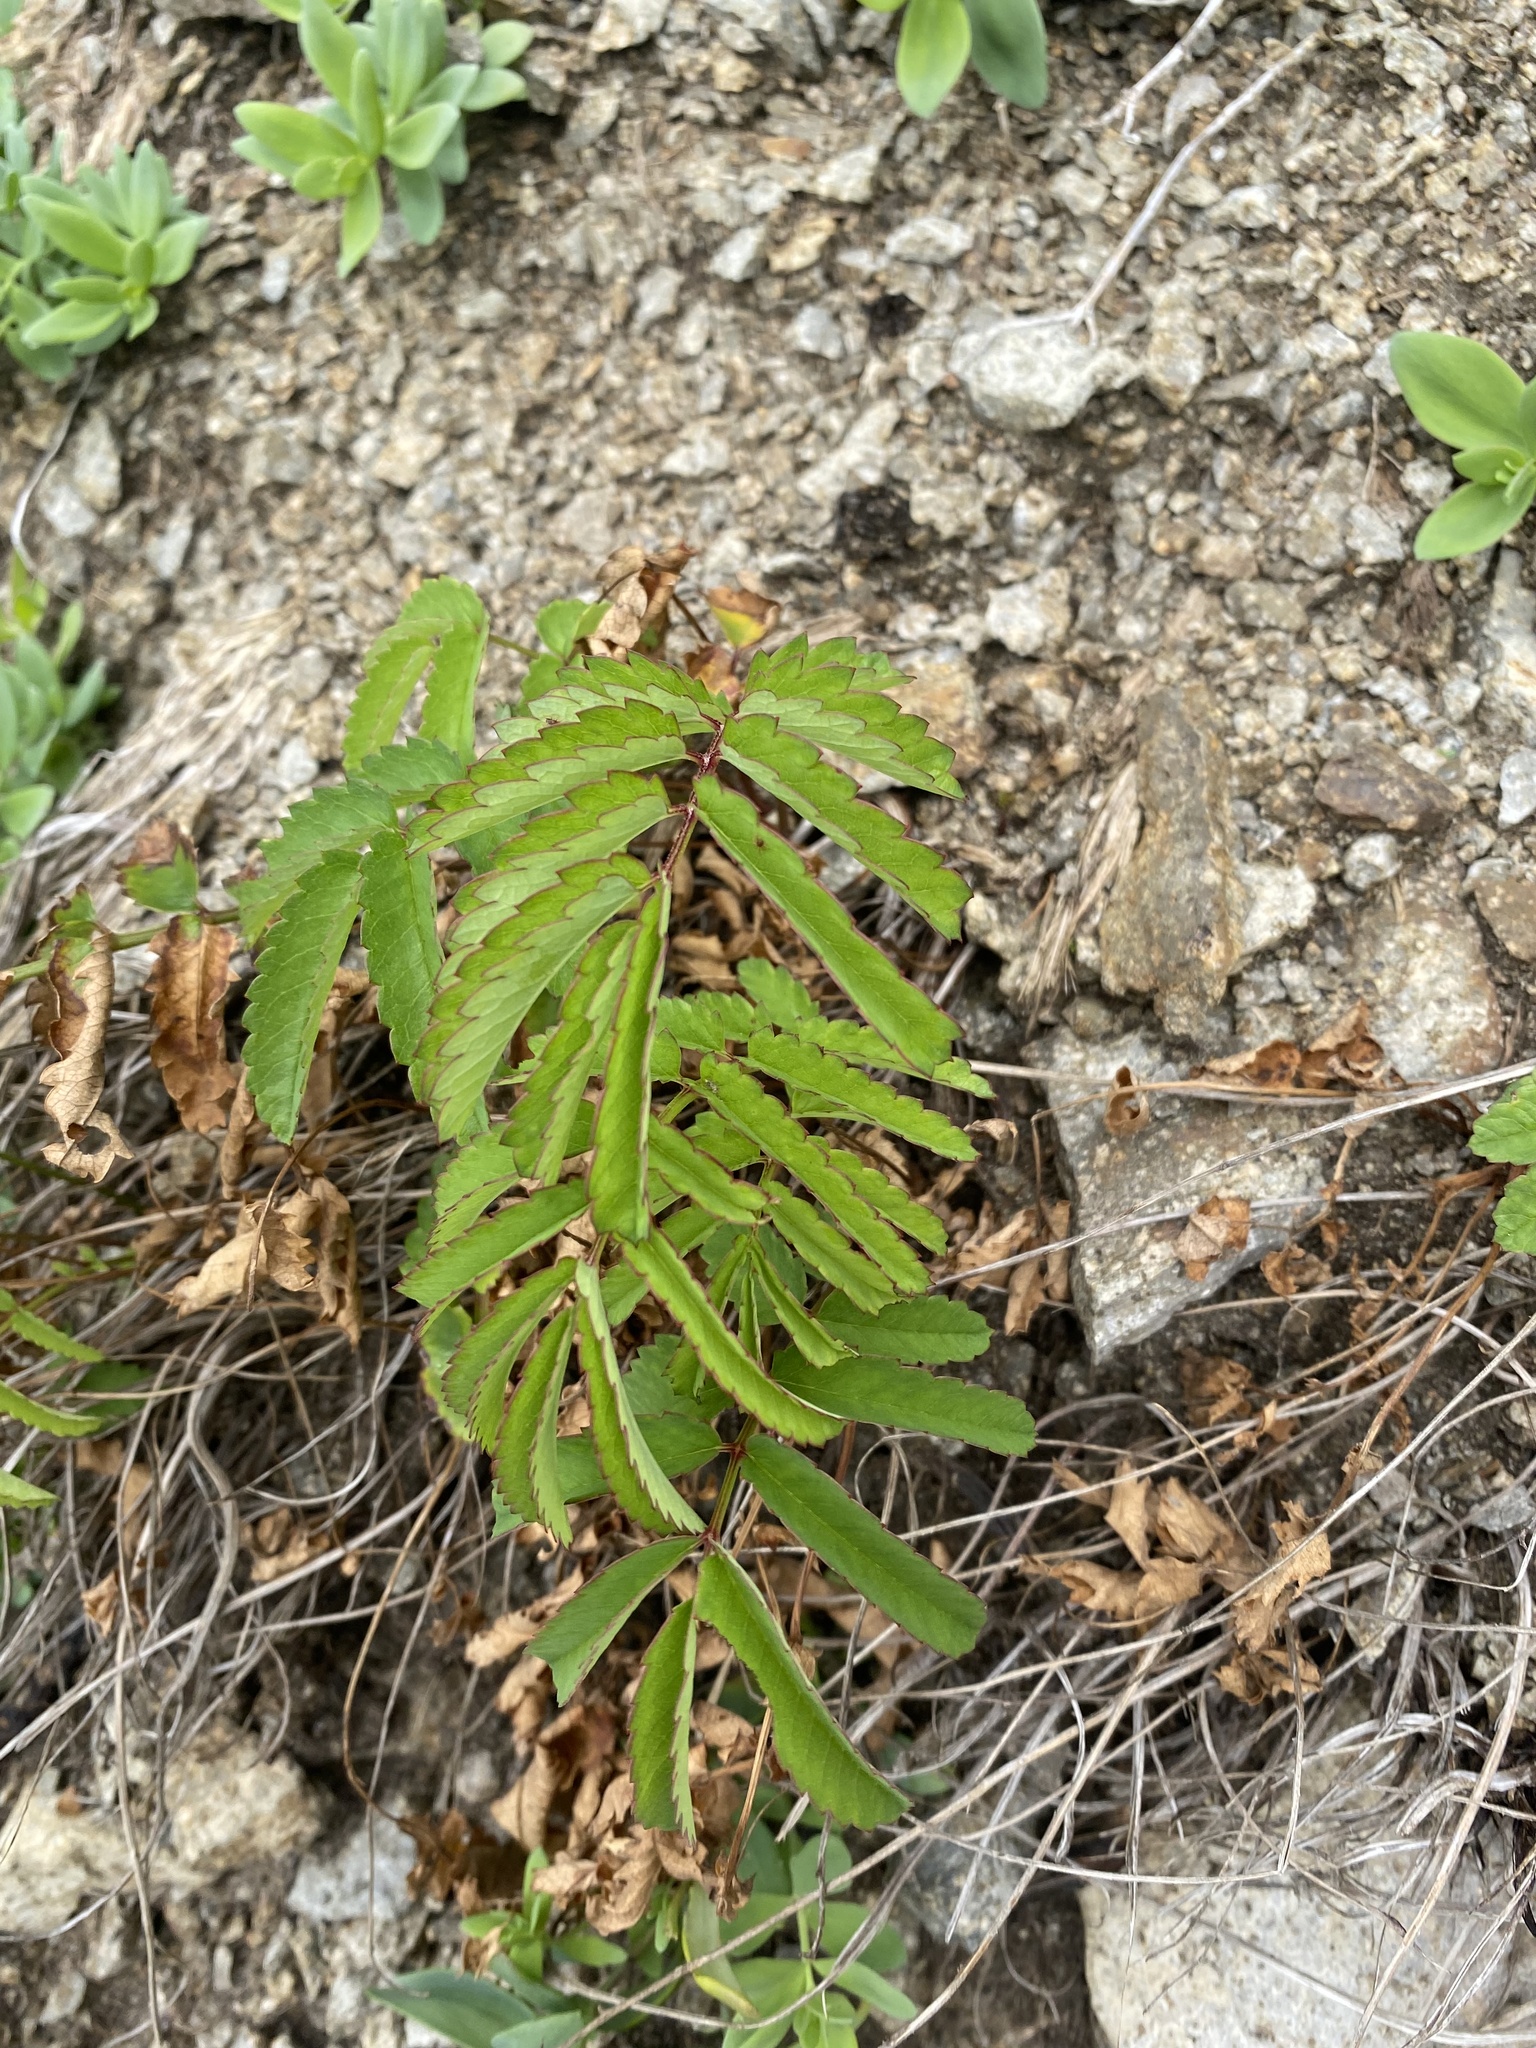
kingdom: Plantae
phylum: Tracheophyta
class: Magnoliopsida
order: Rosales
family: Rosaceae
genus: Poterium
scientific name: Poterium tenuifolium
